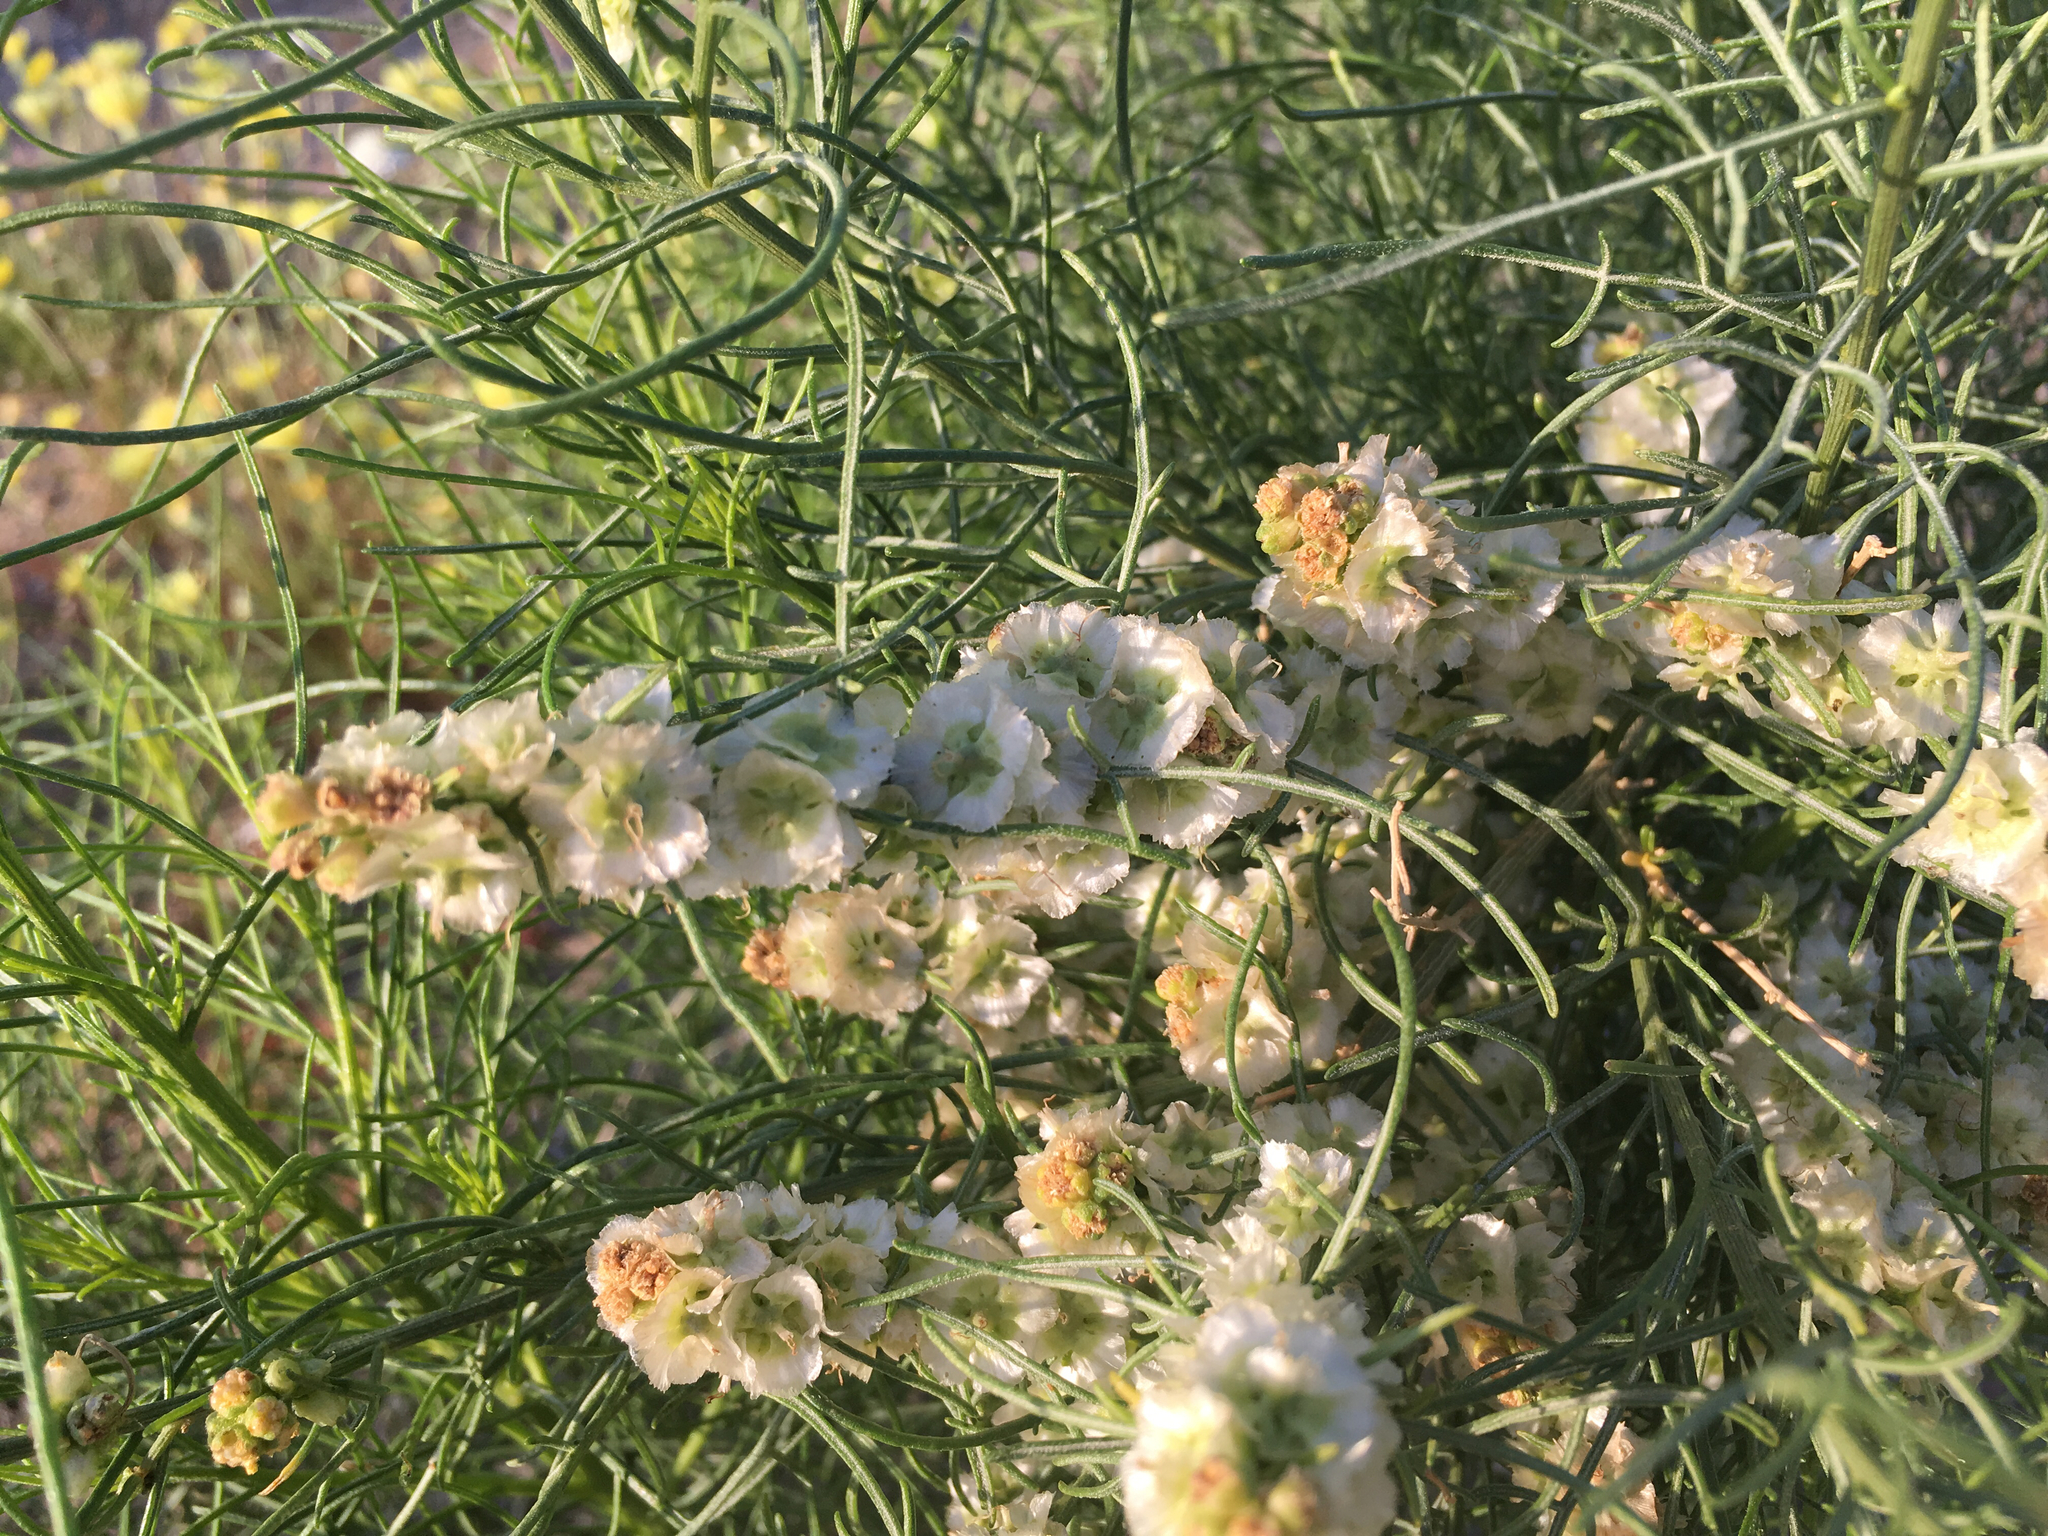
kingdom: Plantae
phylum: Tracheophyta
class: Magnoliopsida
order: Asterales
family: Asteraceae
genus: Ambrosia
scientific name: Ambrosia salsola
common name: Burrobrush
